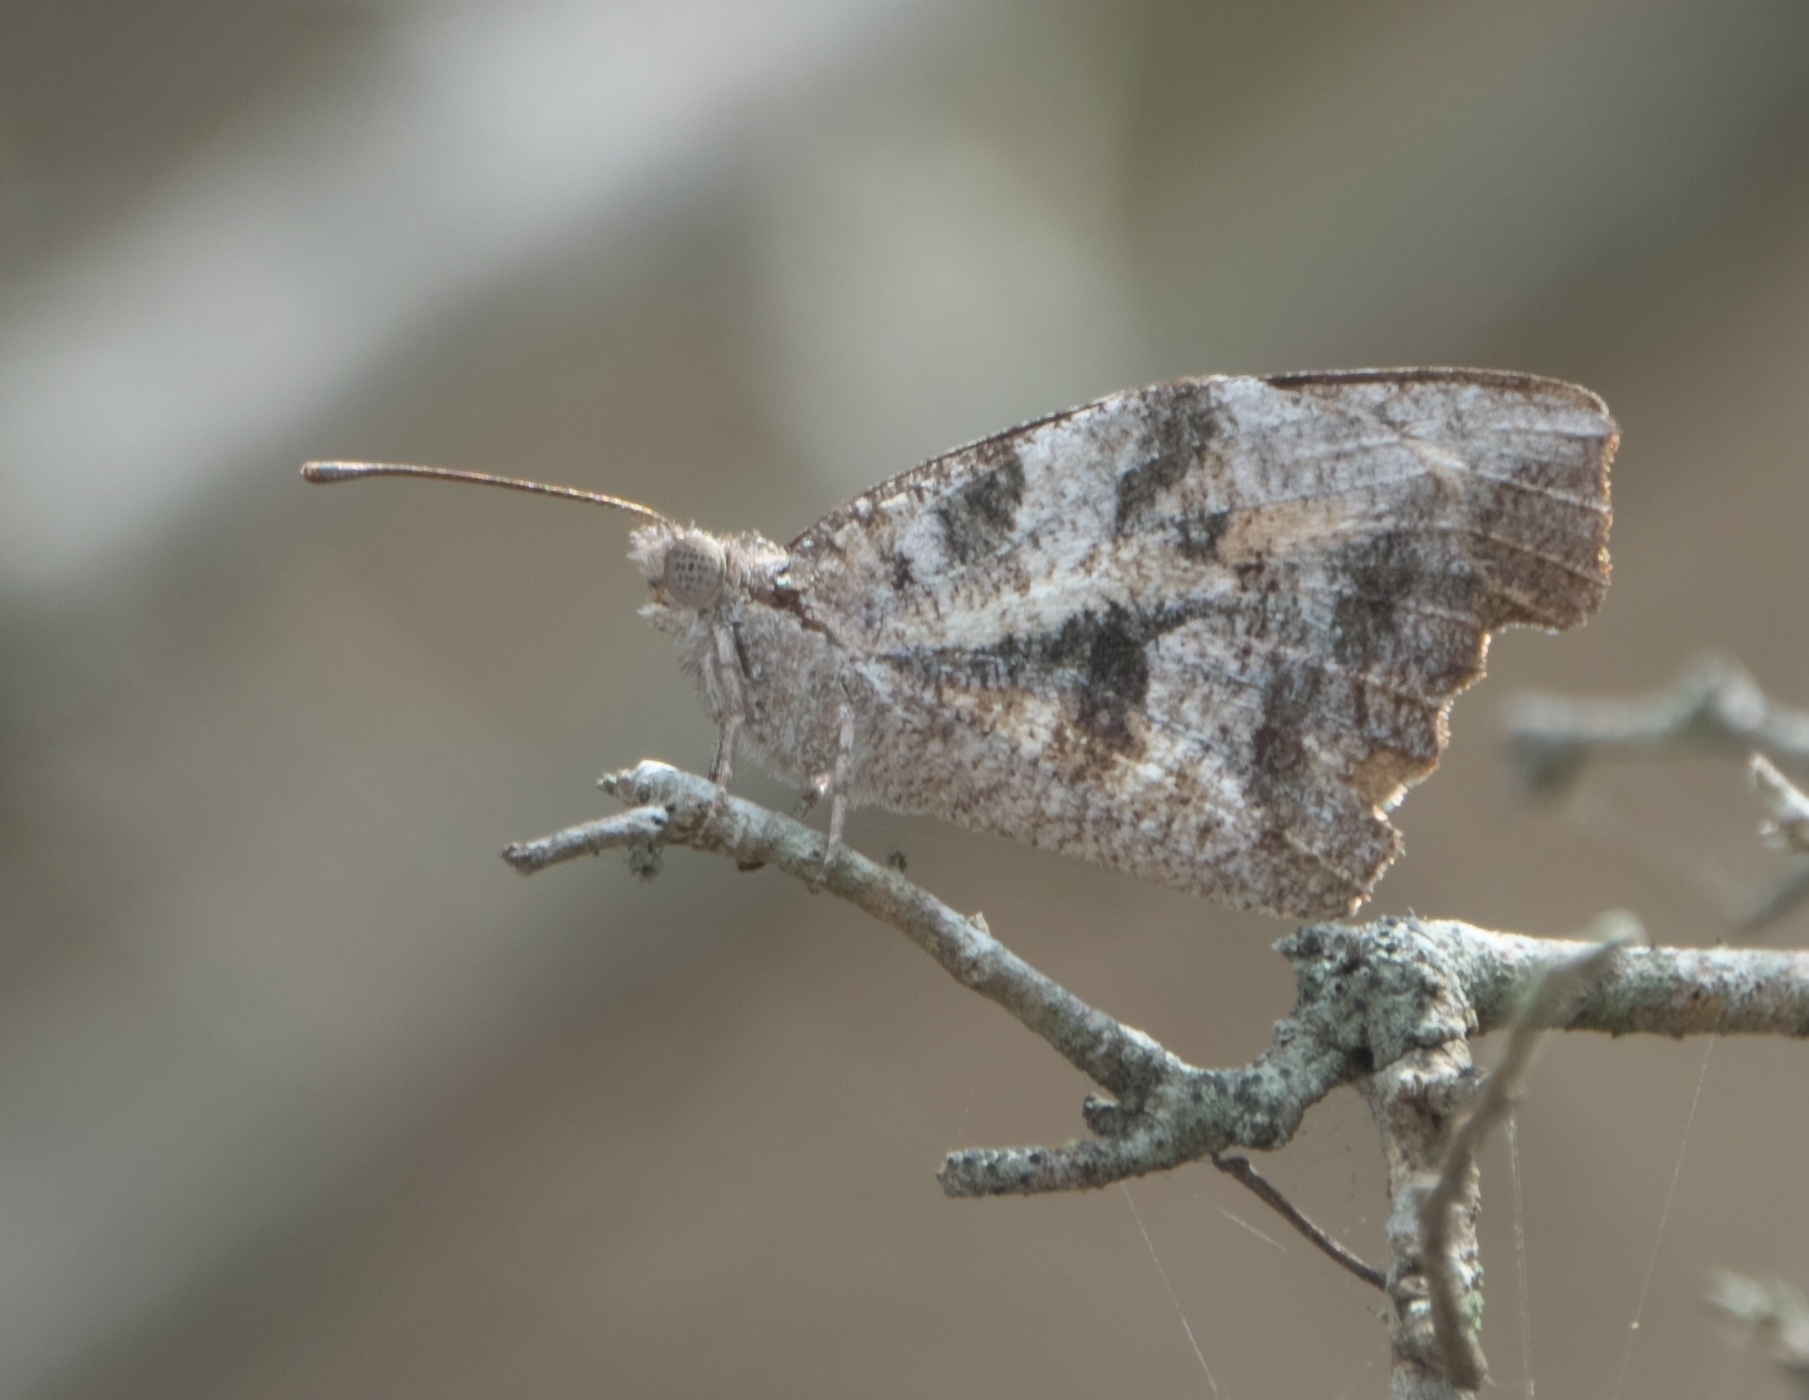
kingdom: Animalia
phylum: Arthropoda
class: Insecta
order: Lepidoptera
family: Nymphalidae
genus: Libytheana
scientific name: Libytheana carinenta
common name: American snout
